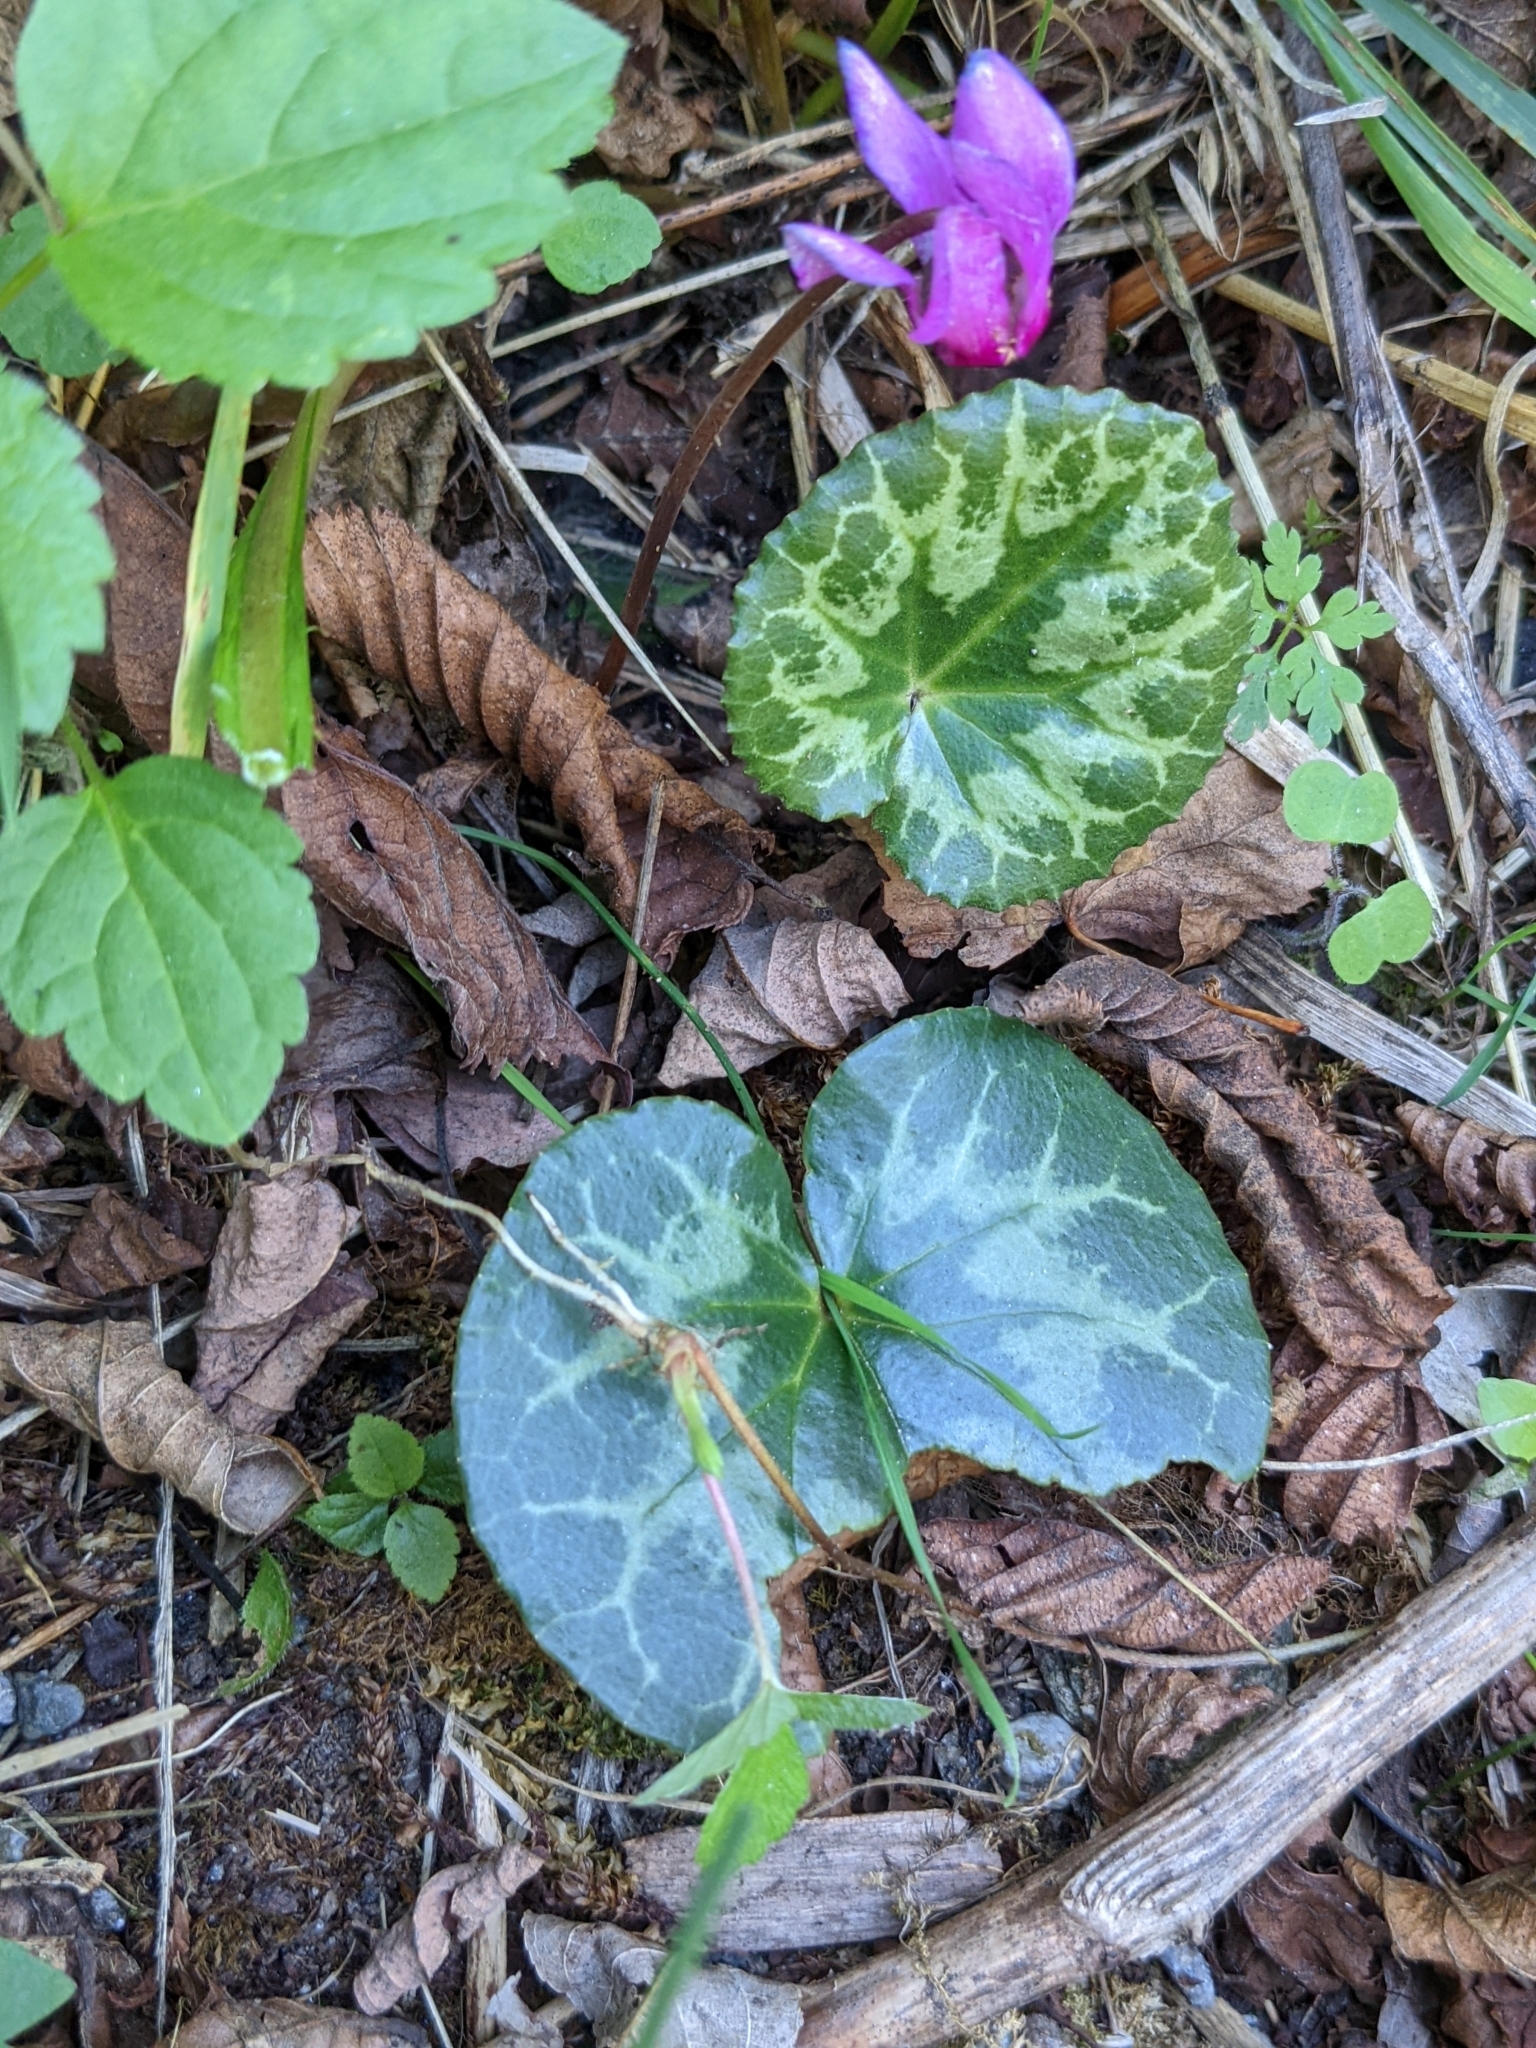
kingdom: Plantae
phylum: Tracheophyta
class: Magnoliopsida
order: Ericales
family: Primulaceae
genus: Cyclamen
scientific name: Cyclamen purpurascens
